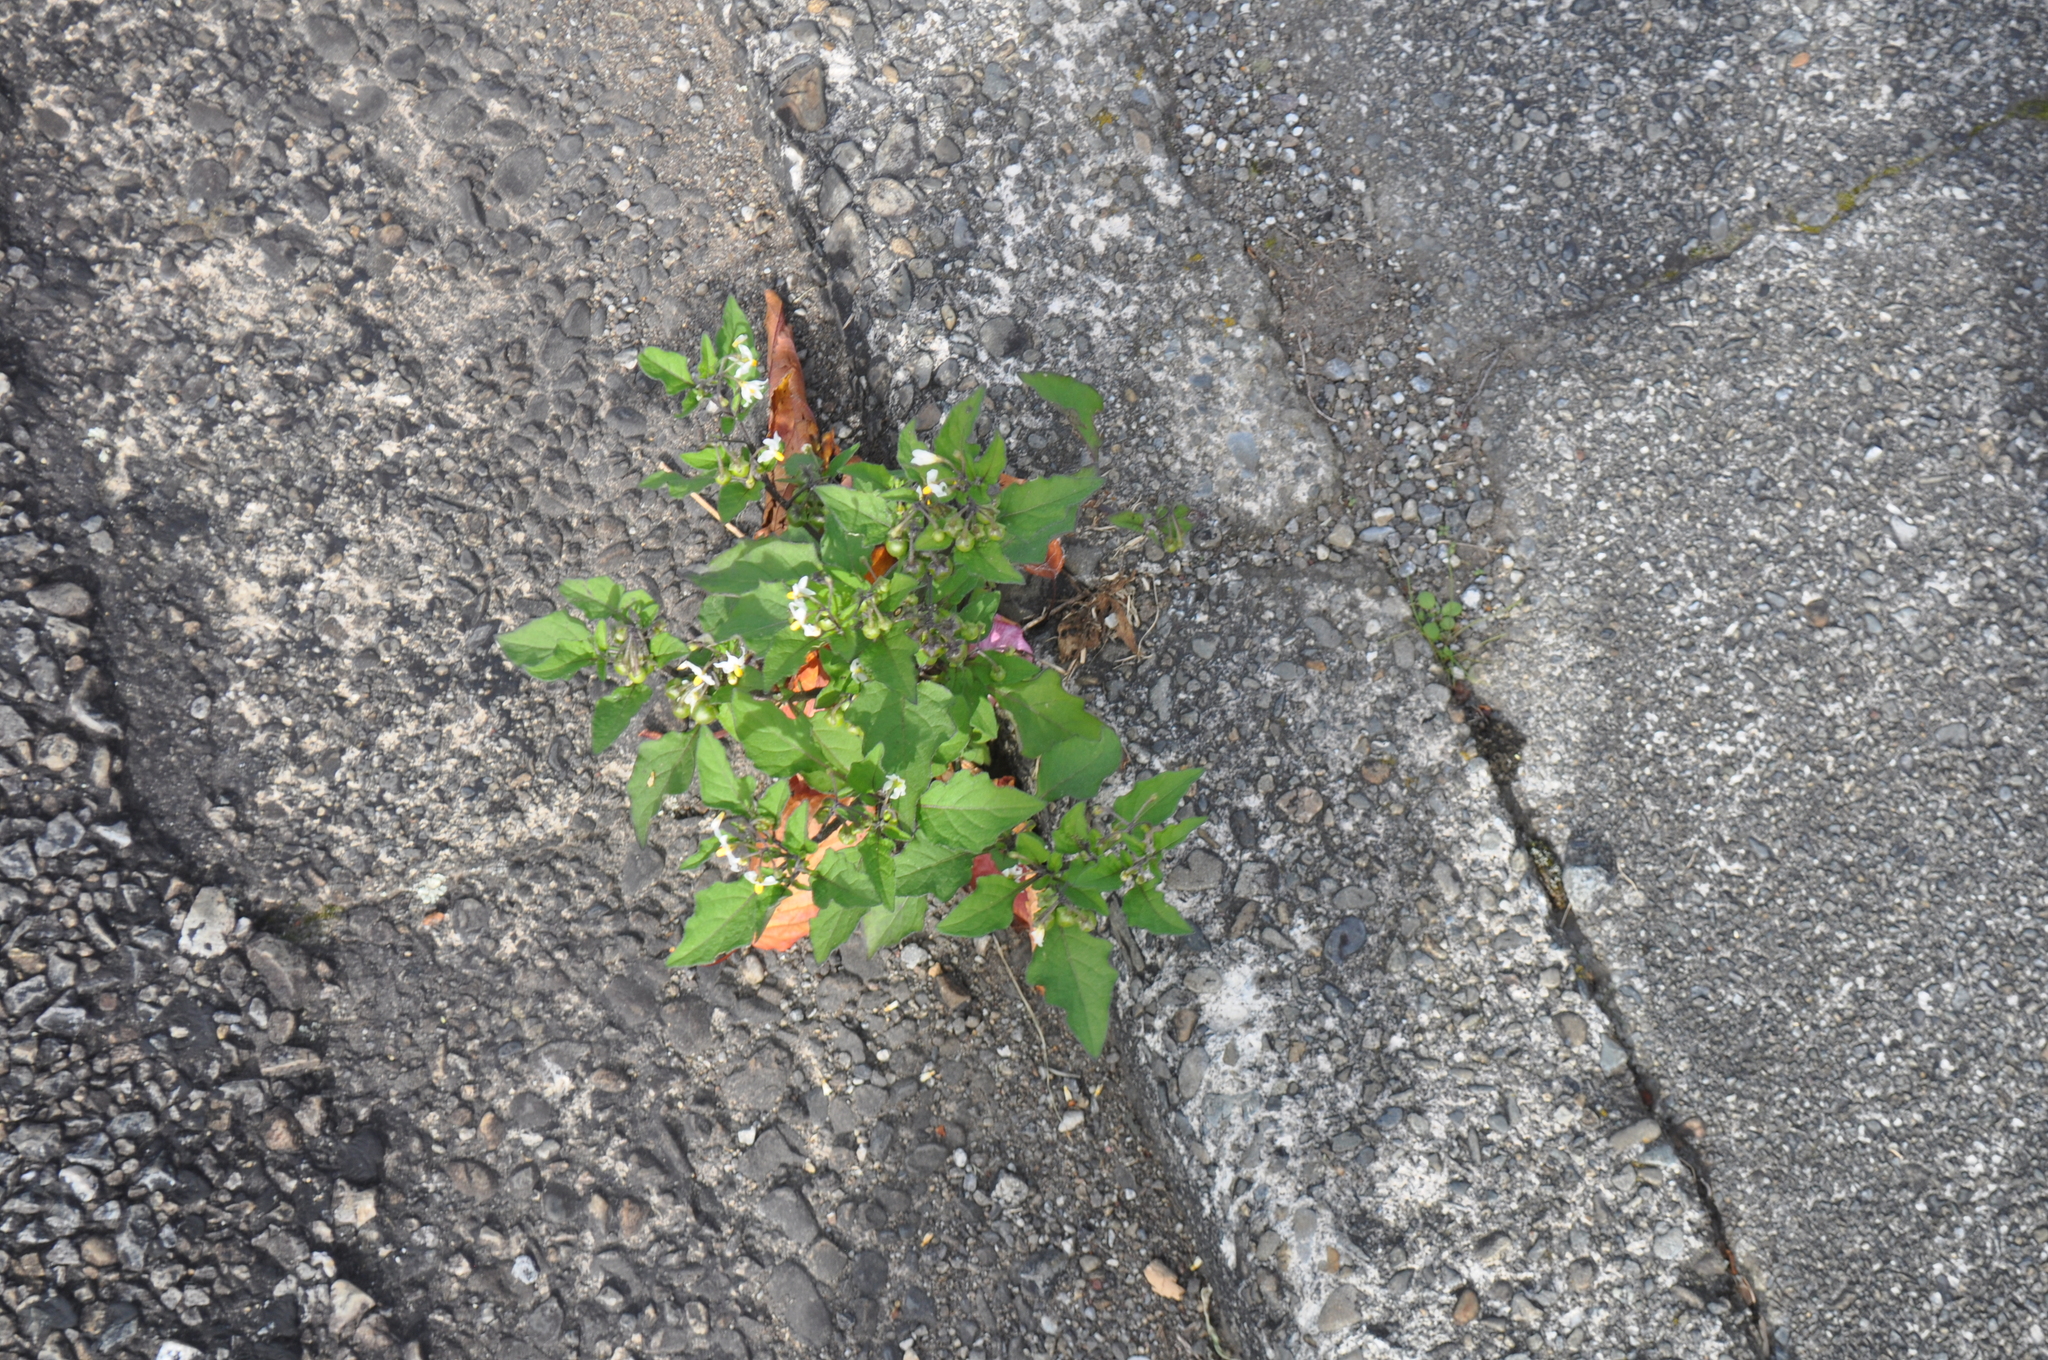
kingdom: Plantae
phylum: Tracheophyta
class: Magnoliopsida
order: Solanales
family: Solanaceae
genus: Solanum
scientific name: Solanum nigrum
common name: Black nightshade
